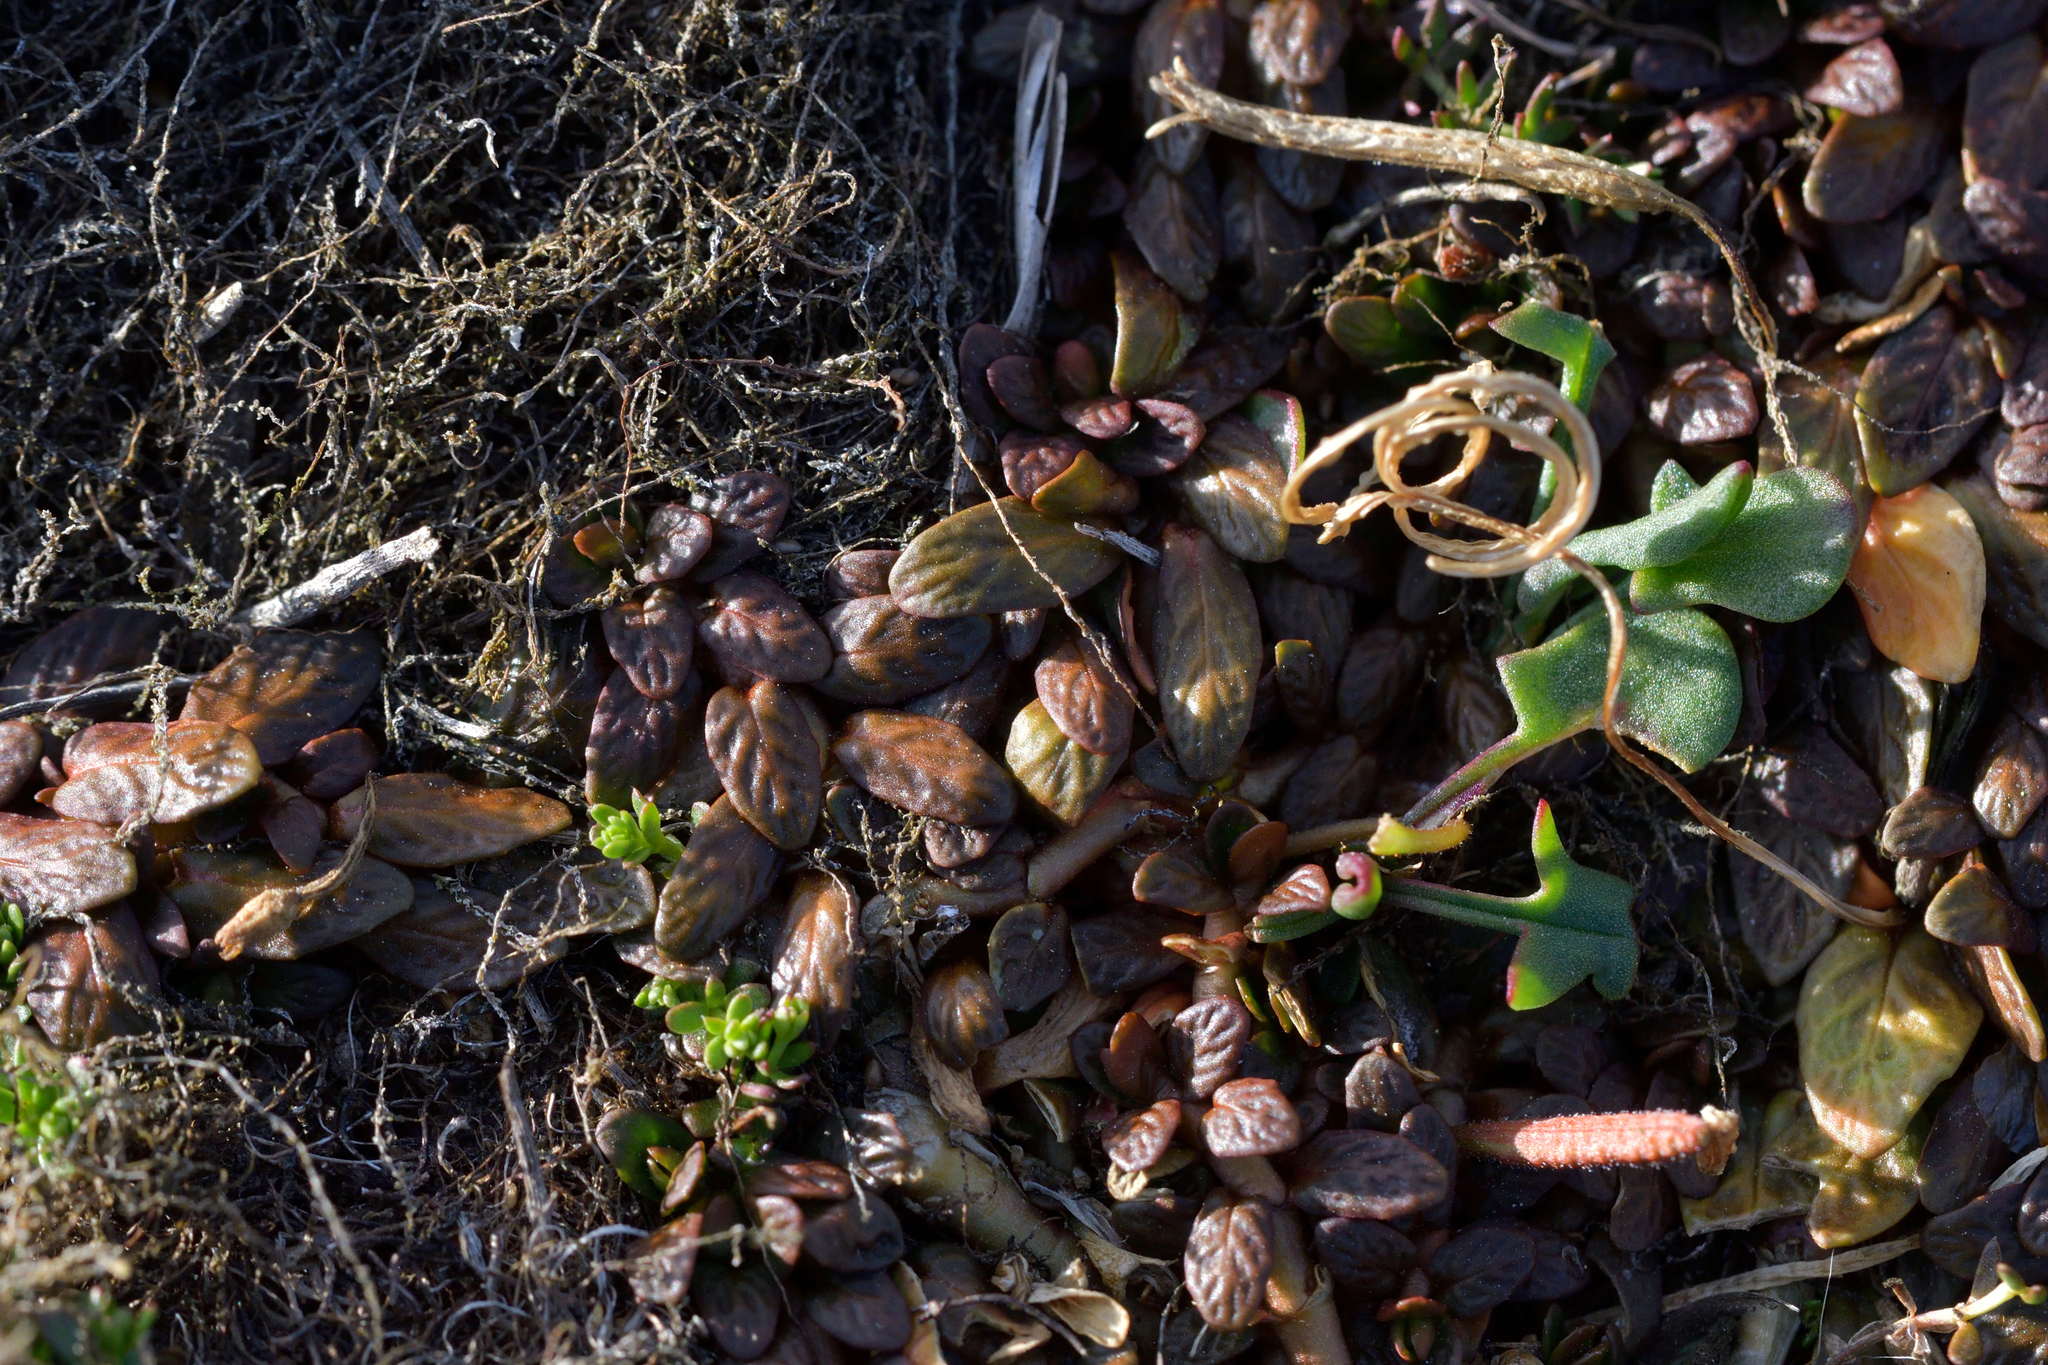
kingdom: Plantae
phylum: Tracheophyta
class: Magnoliopsida
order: Myrtales
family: Onagraceae
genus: Epilobium
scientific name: Epilobium angustum
